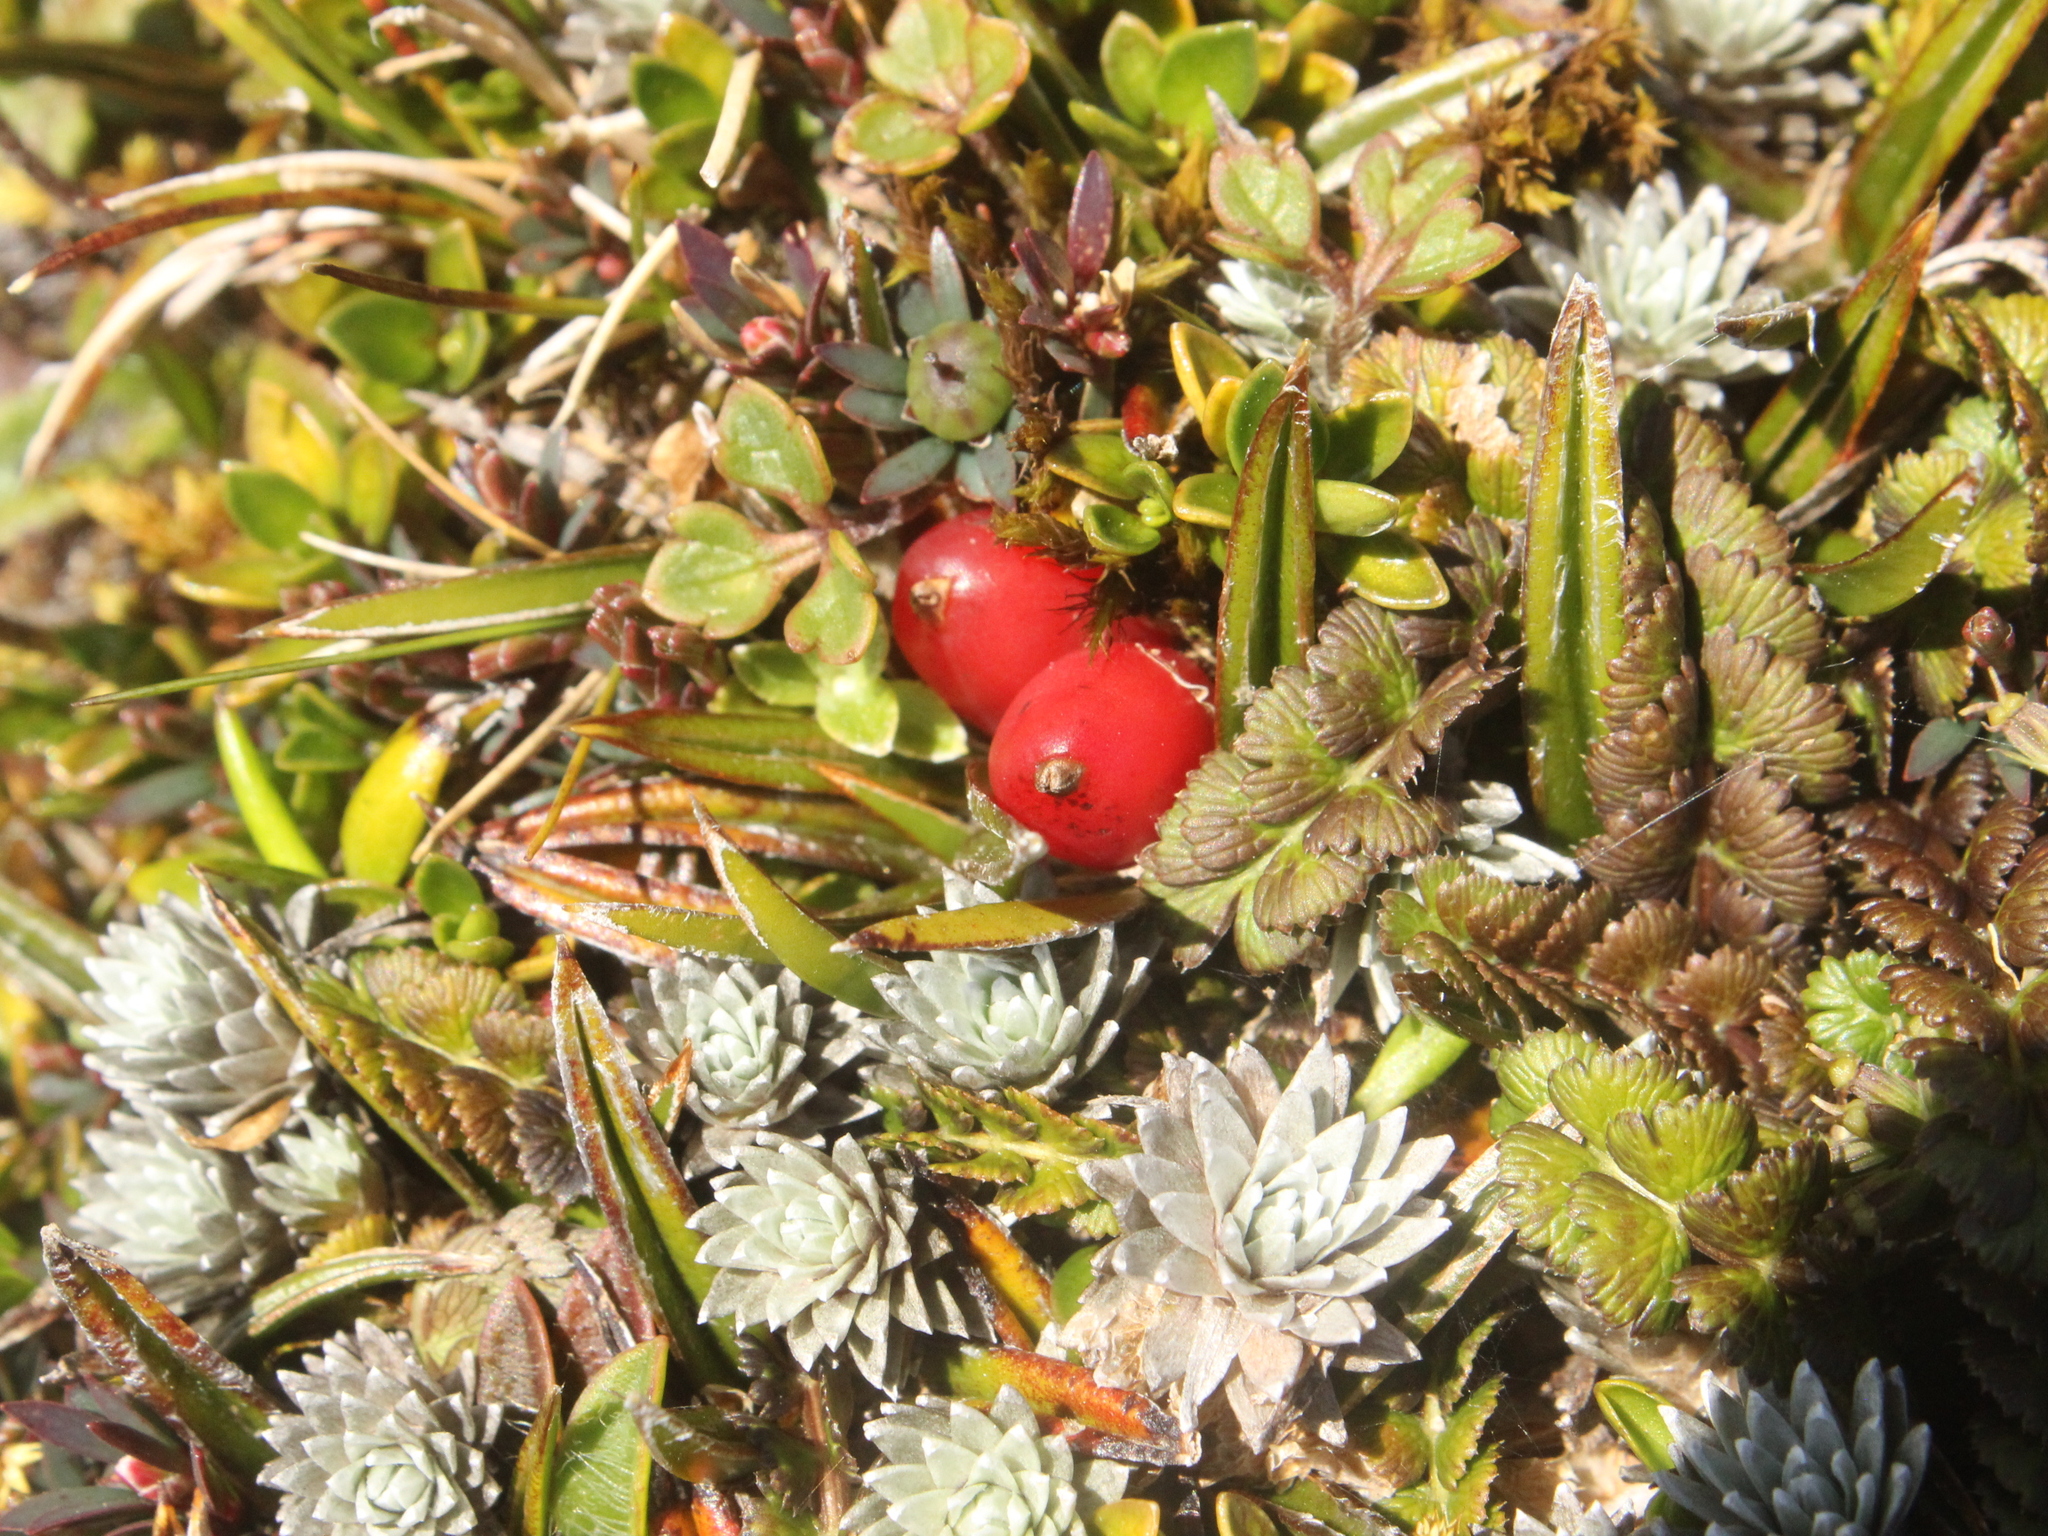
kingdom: Plantae
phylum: Tracheophyta
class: Liliopsida
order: Asparagales
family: Asteliaceae
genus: Astelia
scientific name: Astelia linearis
